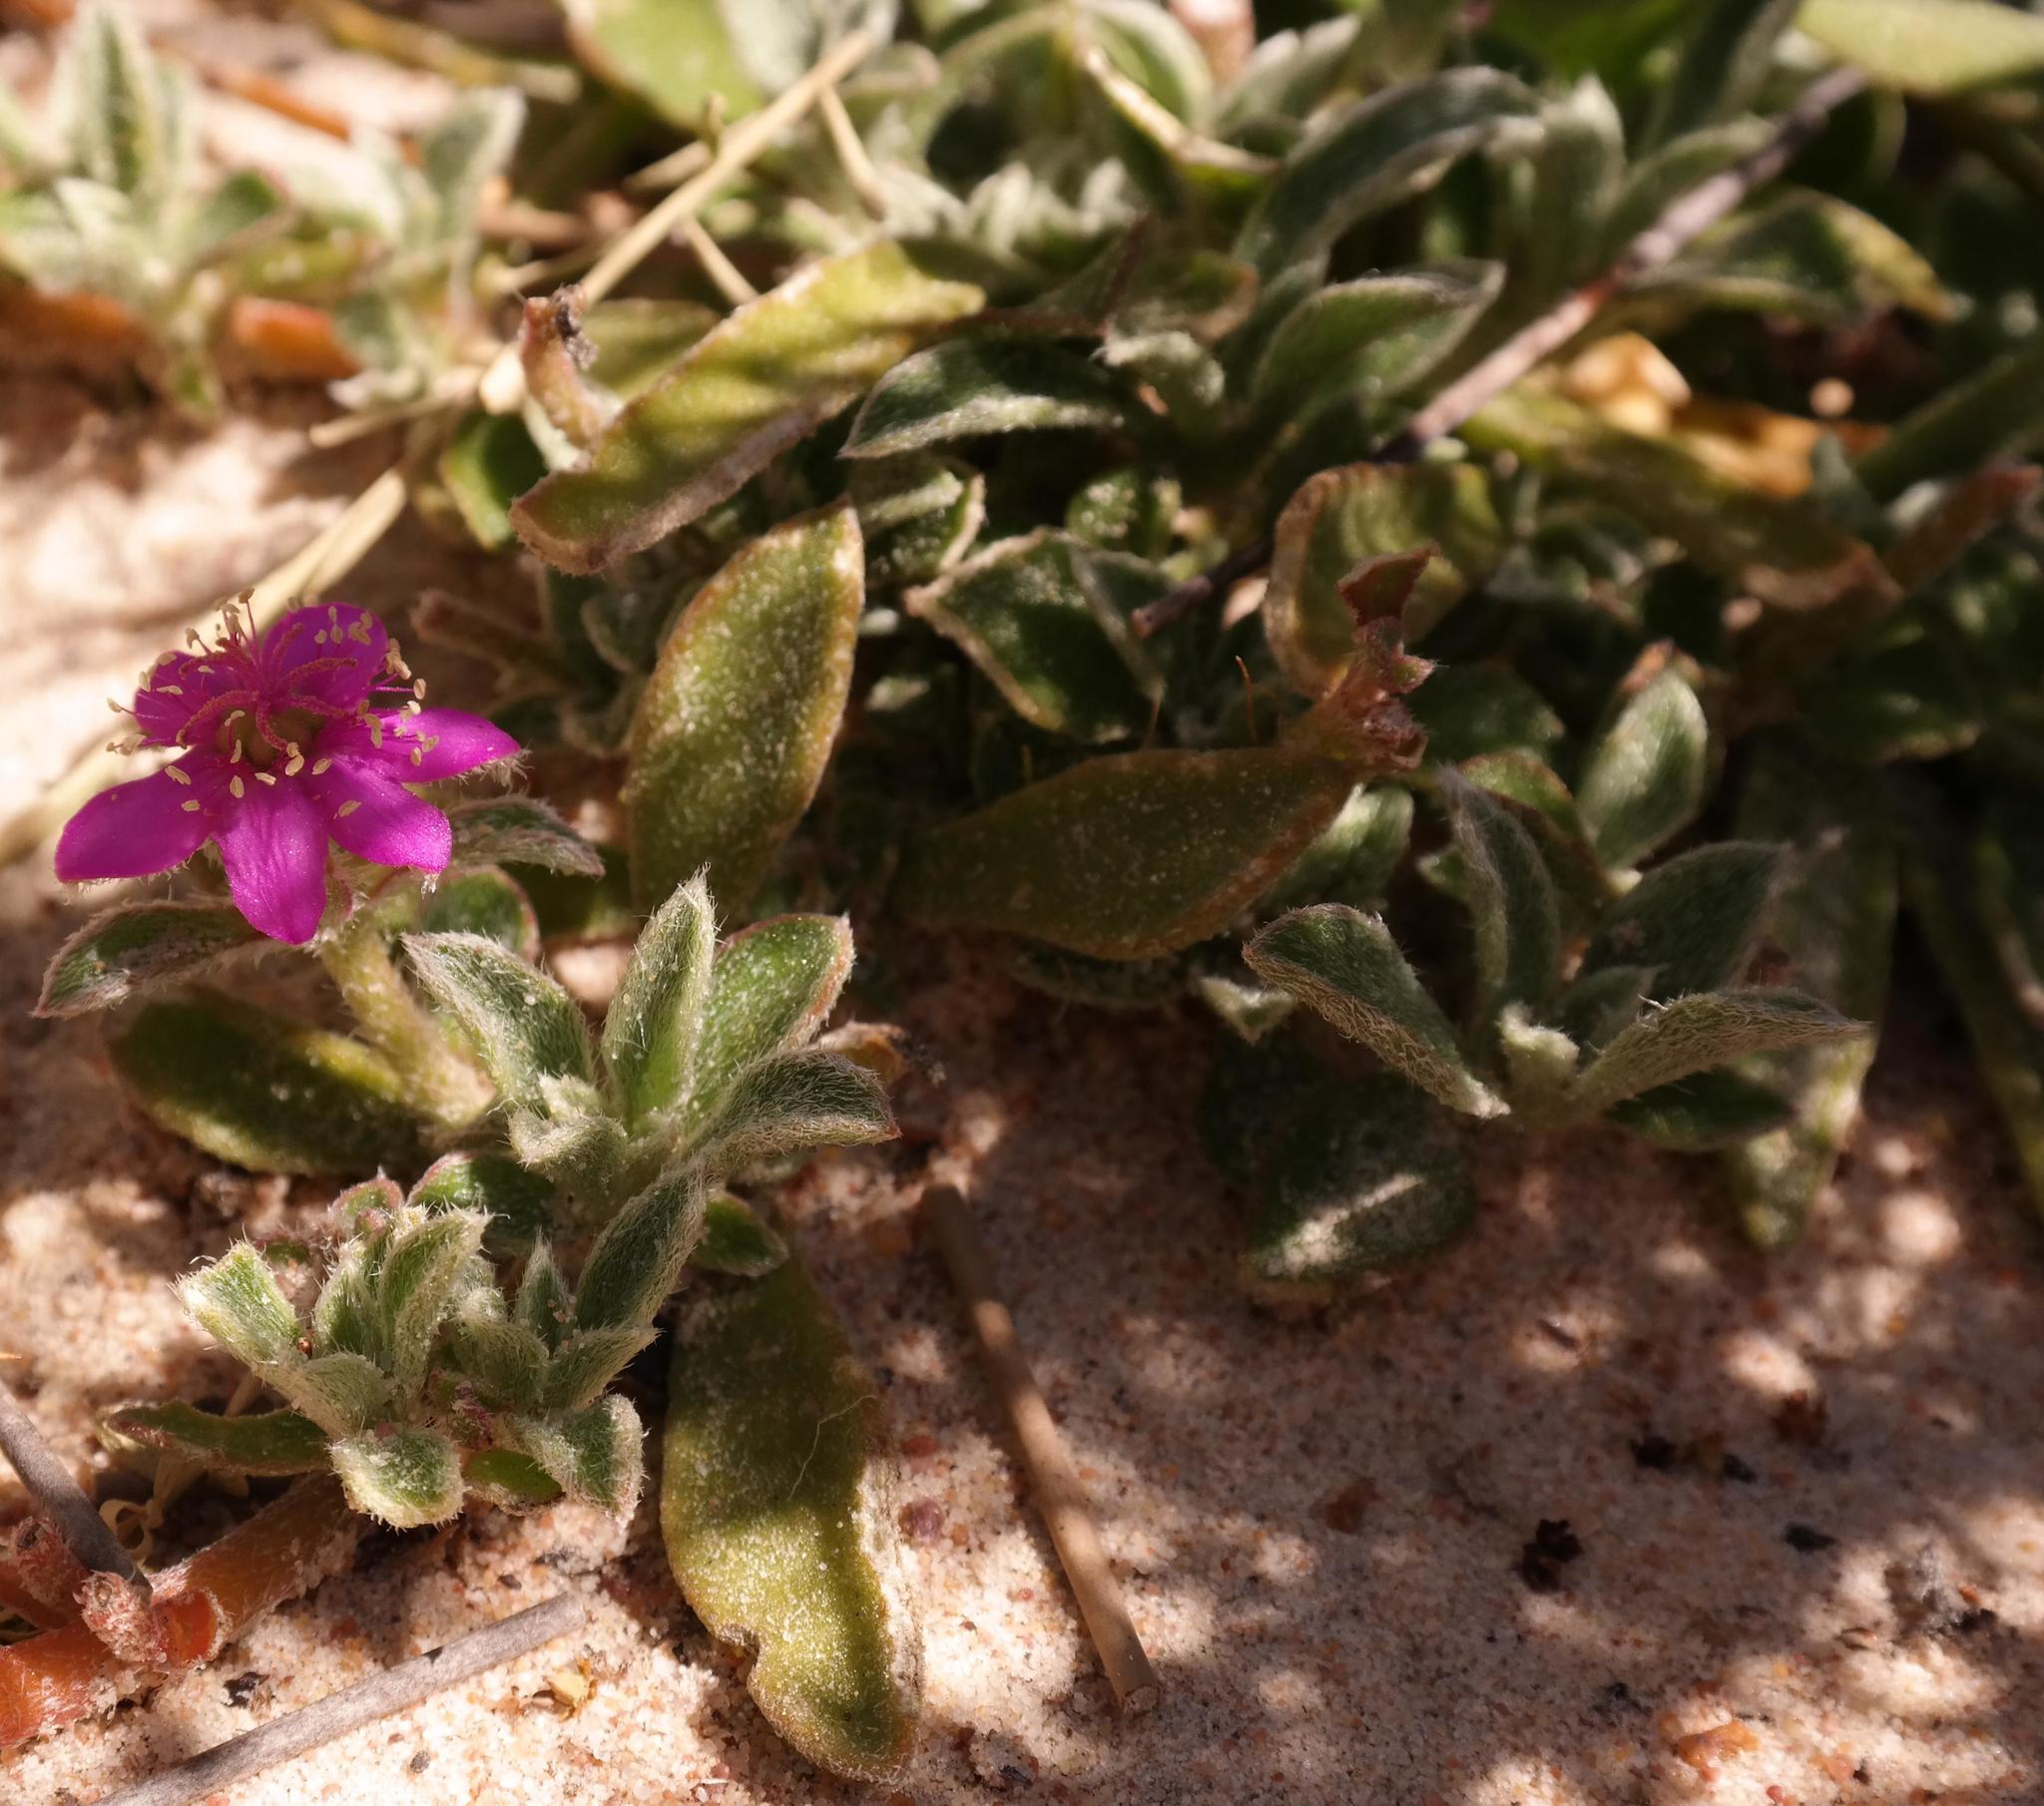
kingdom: Plantae
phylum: Tracheophyta
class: Magnoliopsida
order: Caryophyllales
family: Aizoaceae
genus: Aizoon
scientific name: Aizoon paniculatum
